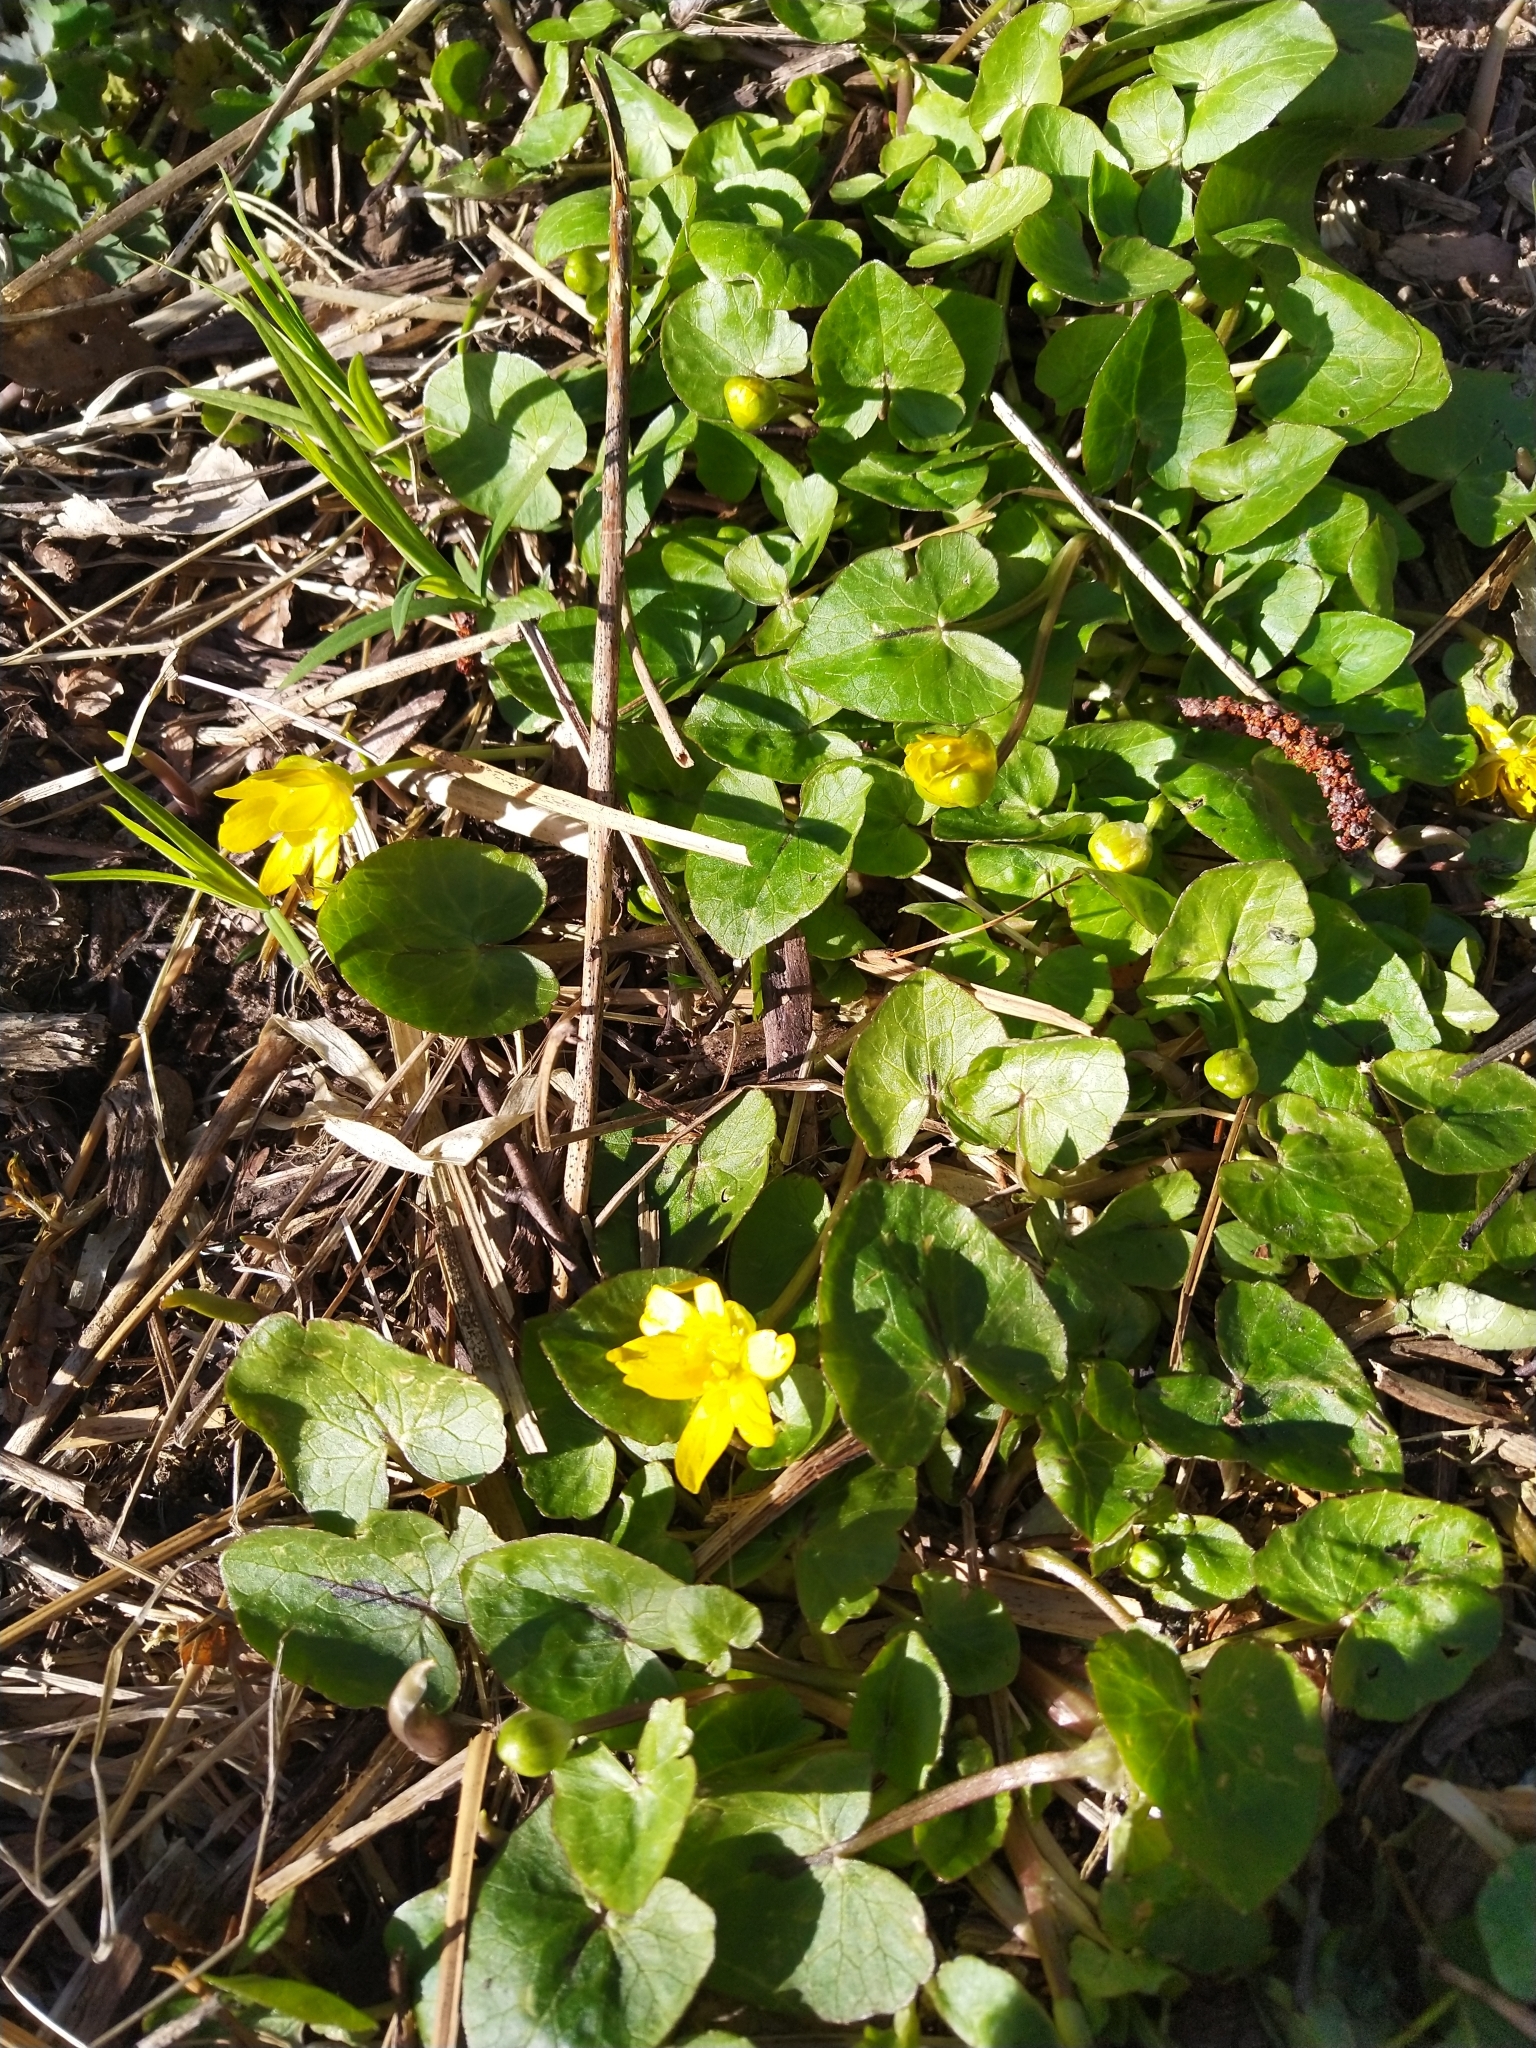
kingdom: Plantae
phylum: Tracheophyta
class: Magnoliopsida
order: Ranunculales
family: Ranunculaceae
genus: Ficaria
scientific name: Ficaria verna
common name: Lesser celandine
